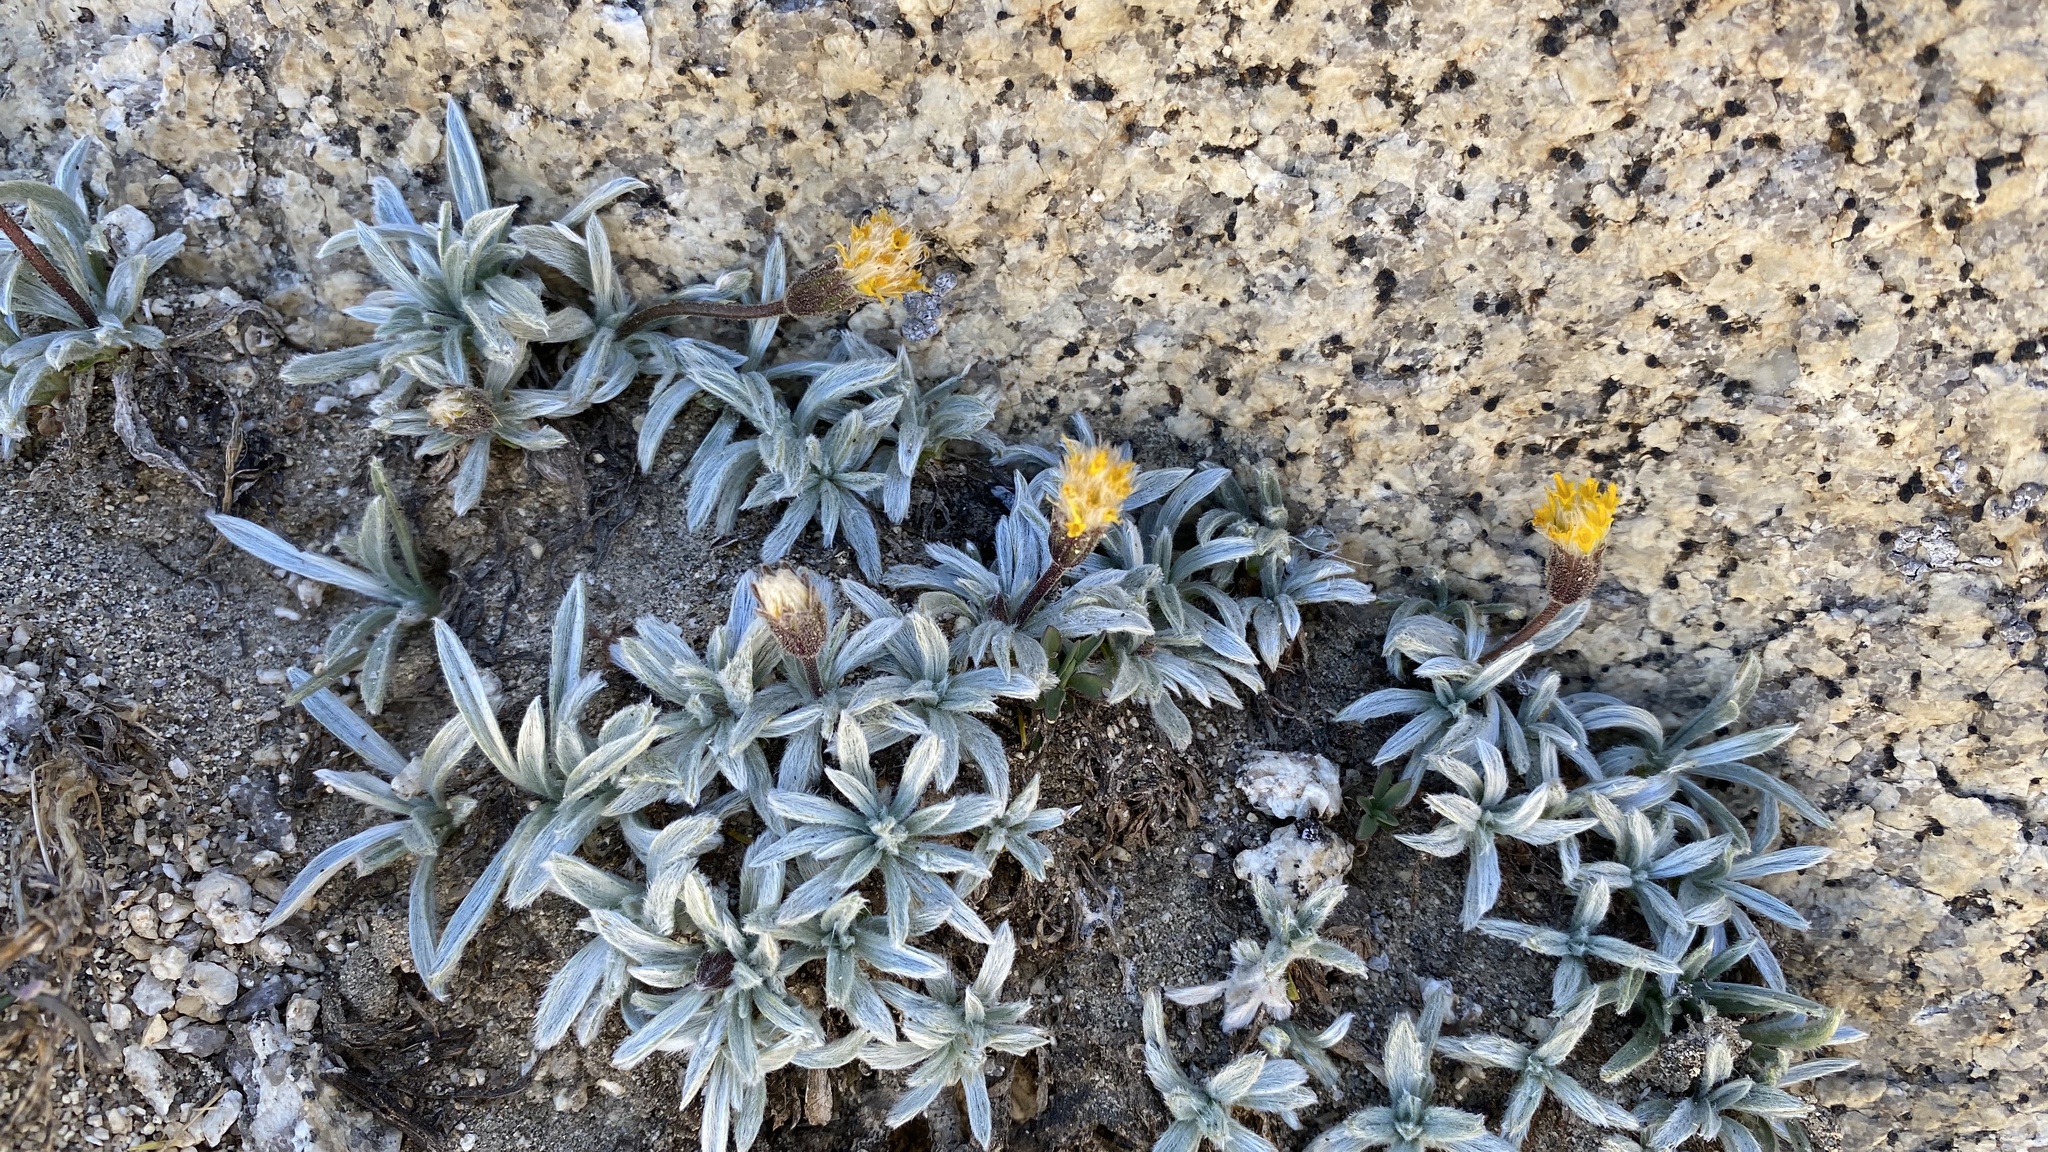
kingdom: Plantae
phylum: Tracheophyta
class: Magnoliopsida
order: Asterales
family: Asteraceae
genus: Raillardella
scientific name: Raillardella argentea
